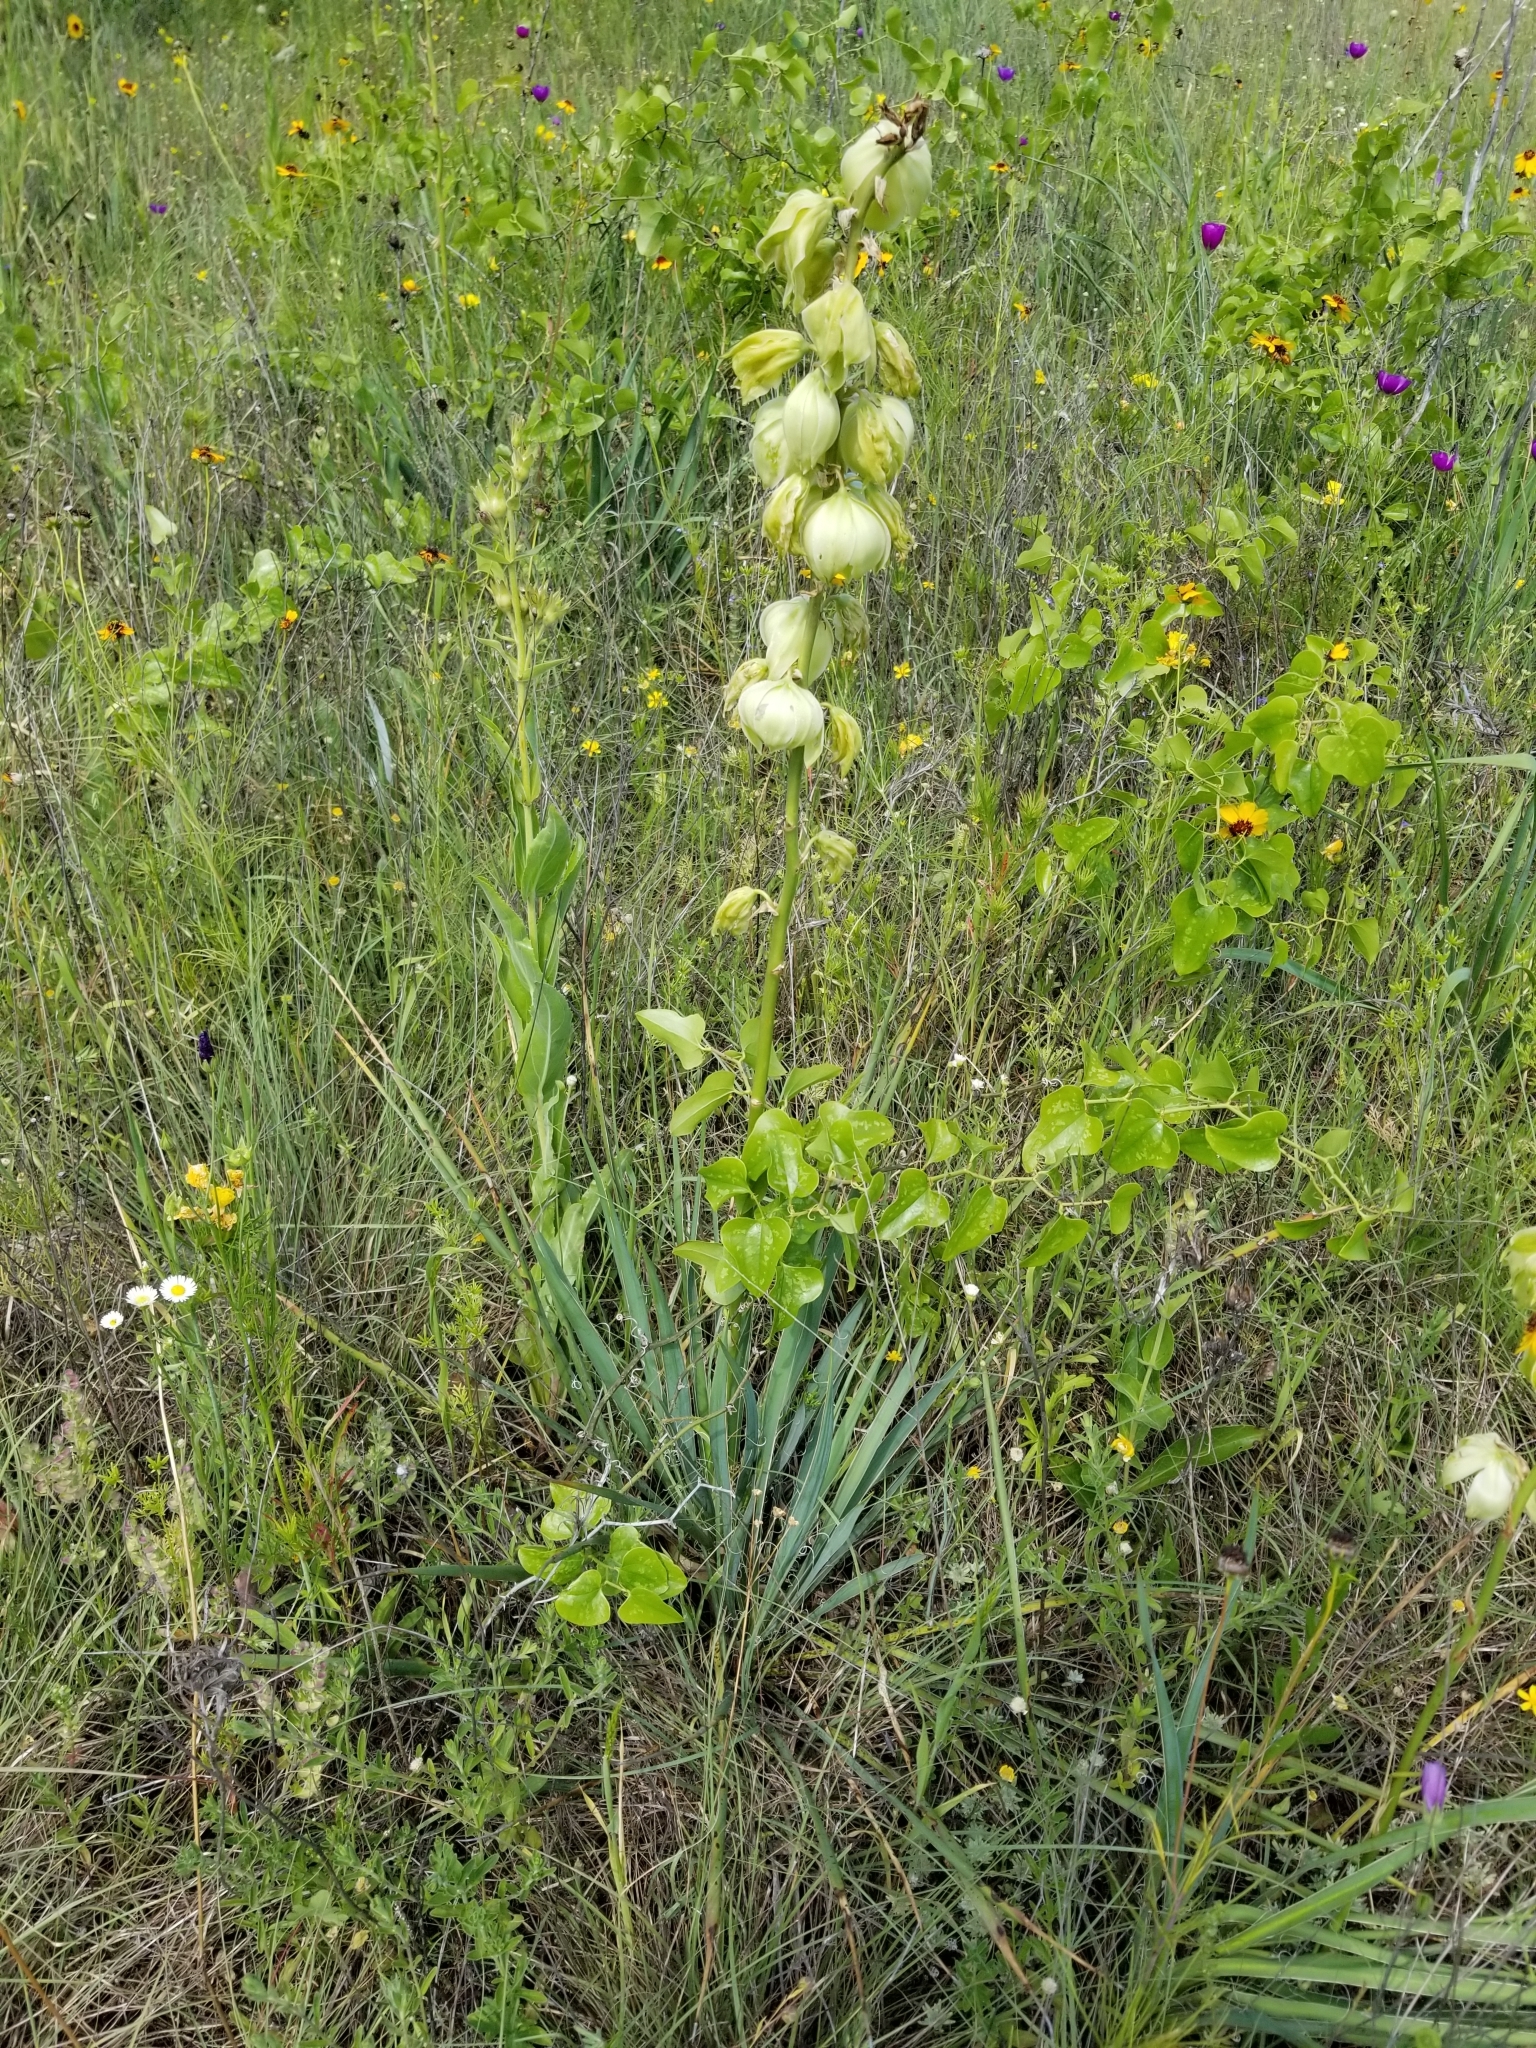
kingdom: Plantae
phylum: Tracheophyta
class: Liliopsida
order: Asparagales
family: Asparagaceae
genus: Yucca
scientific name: Yucca arkansana
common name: Arkansas yucca
